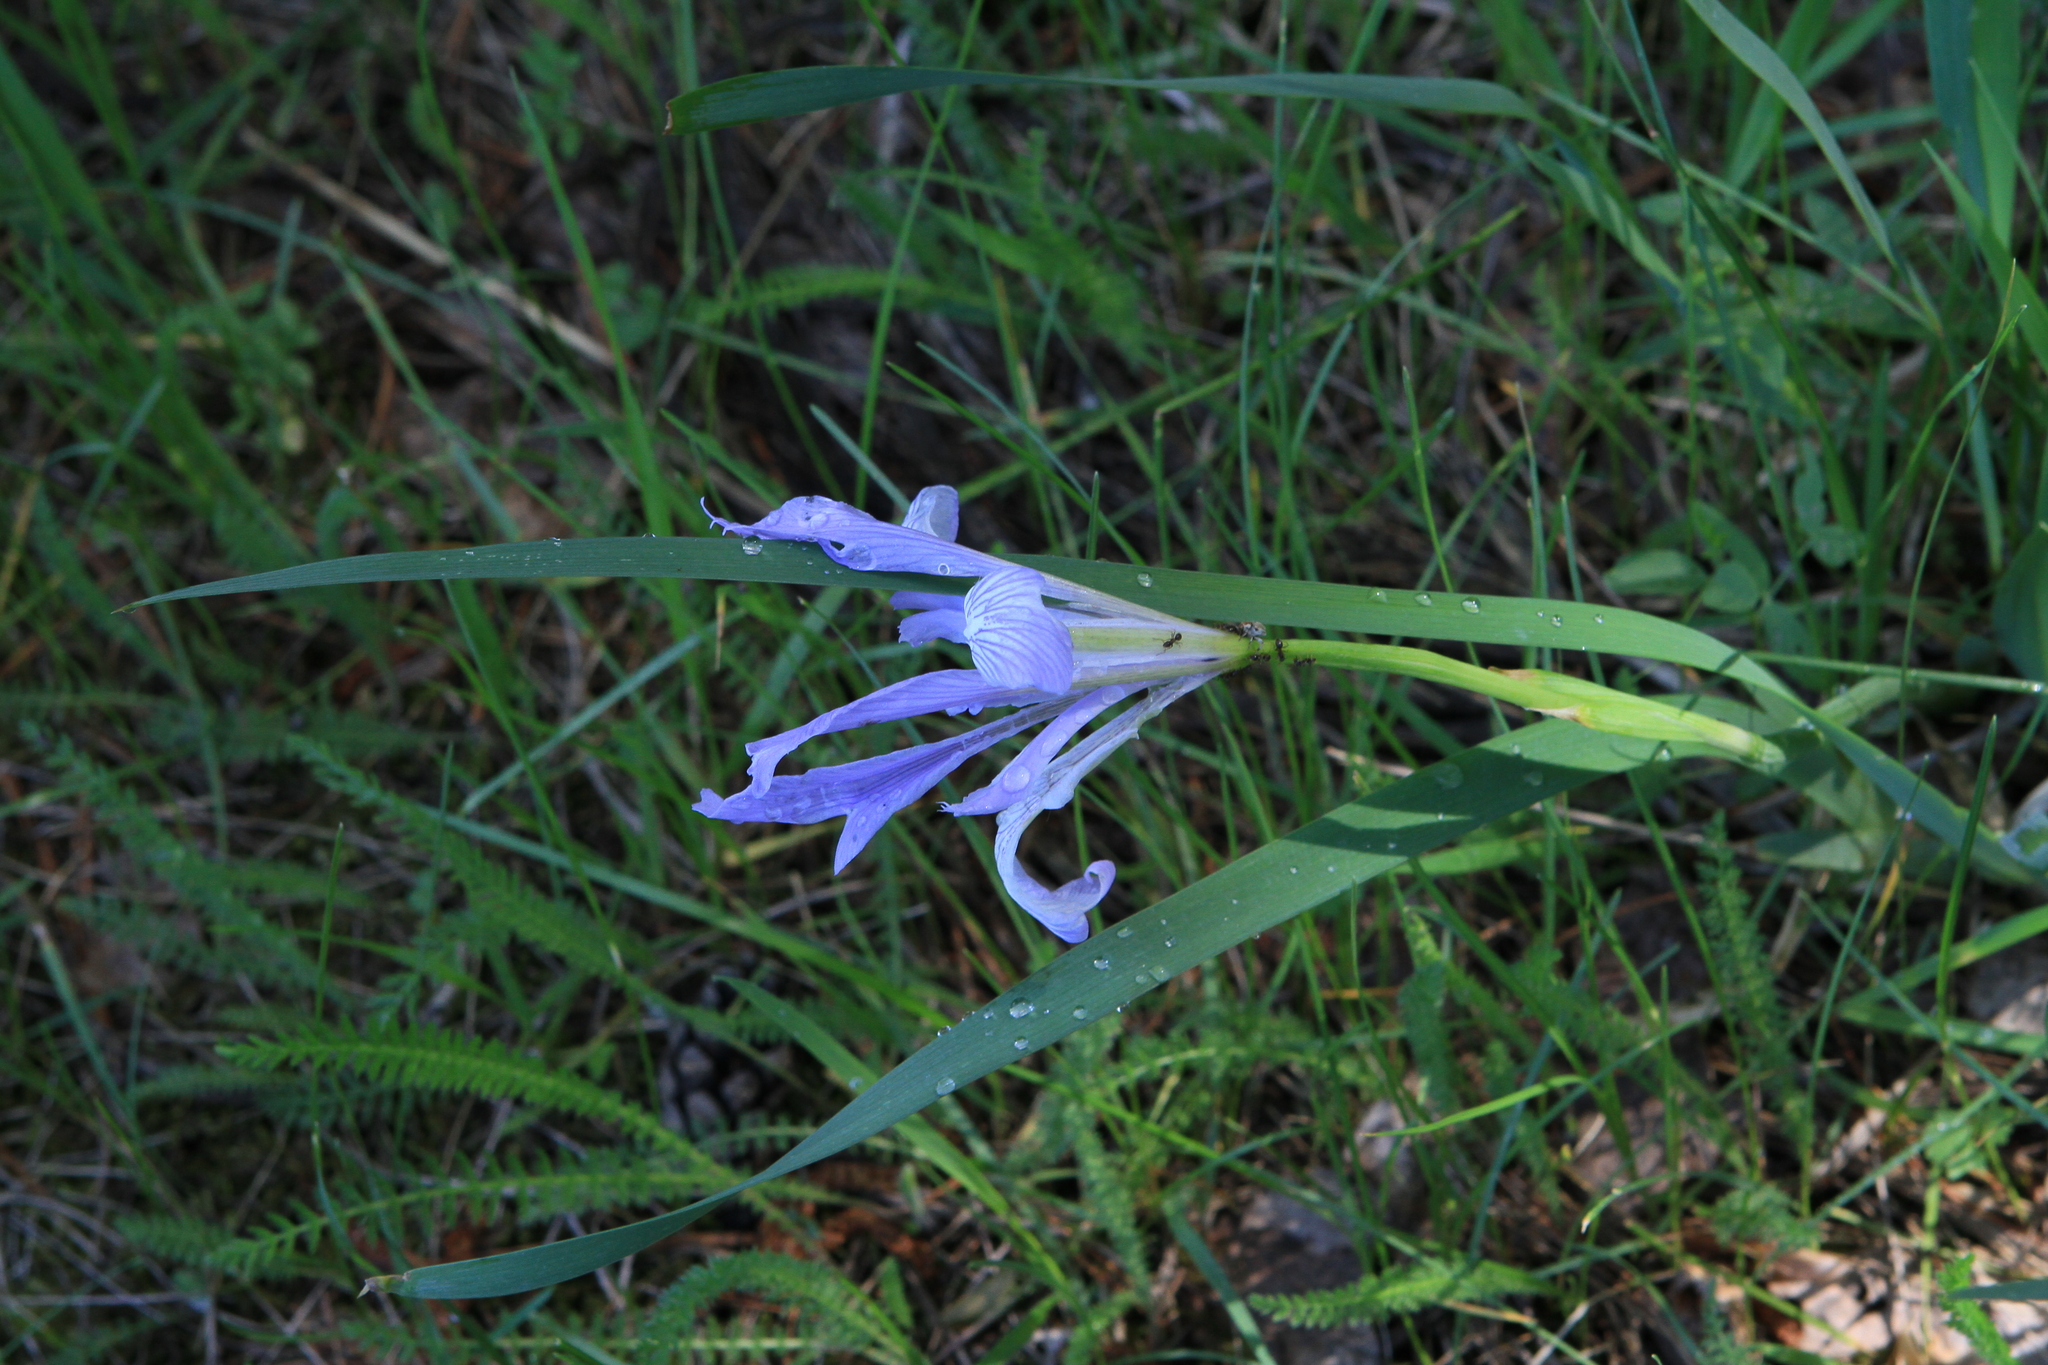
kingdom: Plantae
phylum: Tracheophyta
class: Liliopsida
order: Asparagales
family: Iridaceae
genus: Iris
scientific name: Iris lactea
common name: White-flower chinese iris
